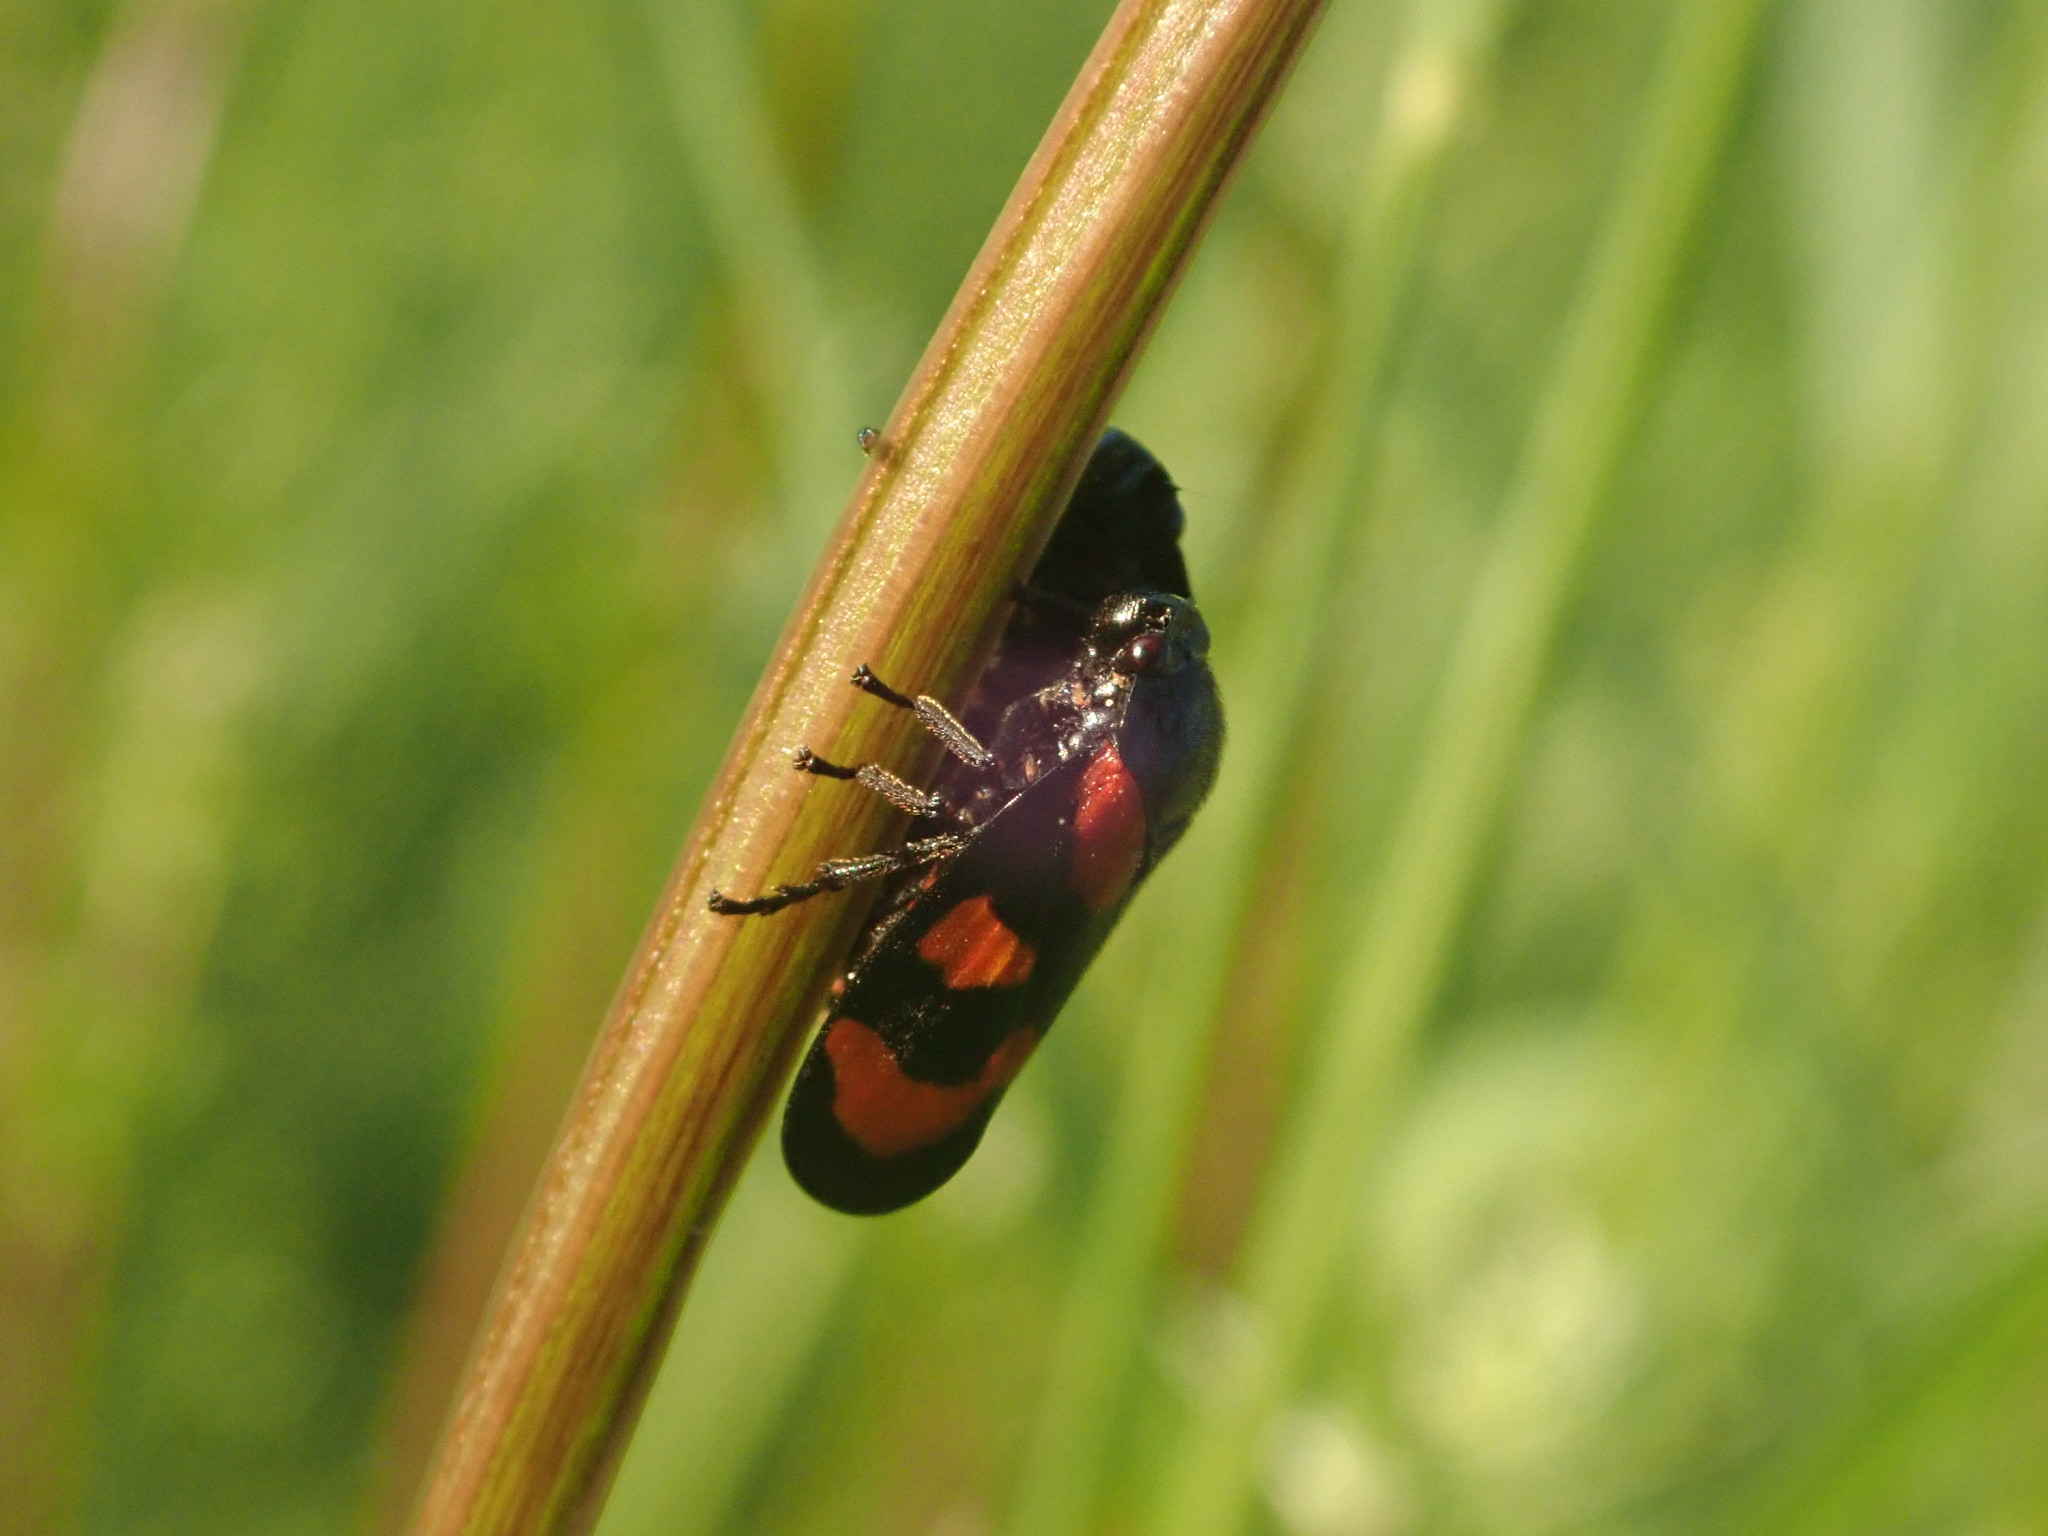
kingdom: Animalia
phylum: Arthropoda
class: Insecta
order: Hemiptera
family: Cercopidae
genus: Cercopis
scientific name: Cercopis vulnerata
